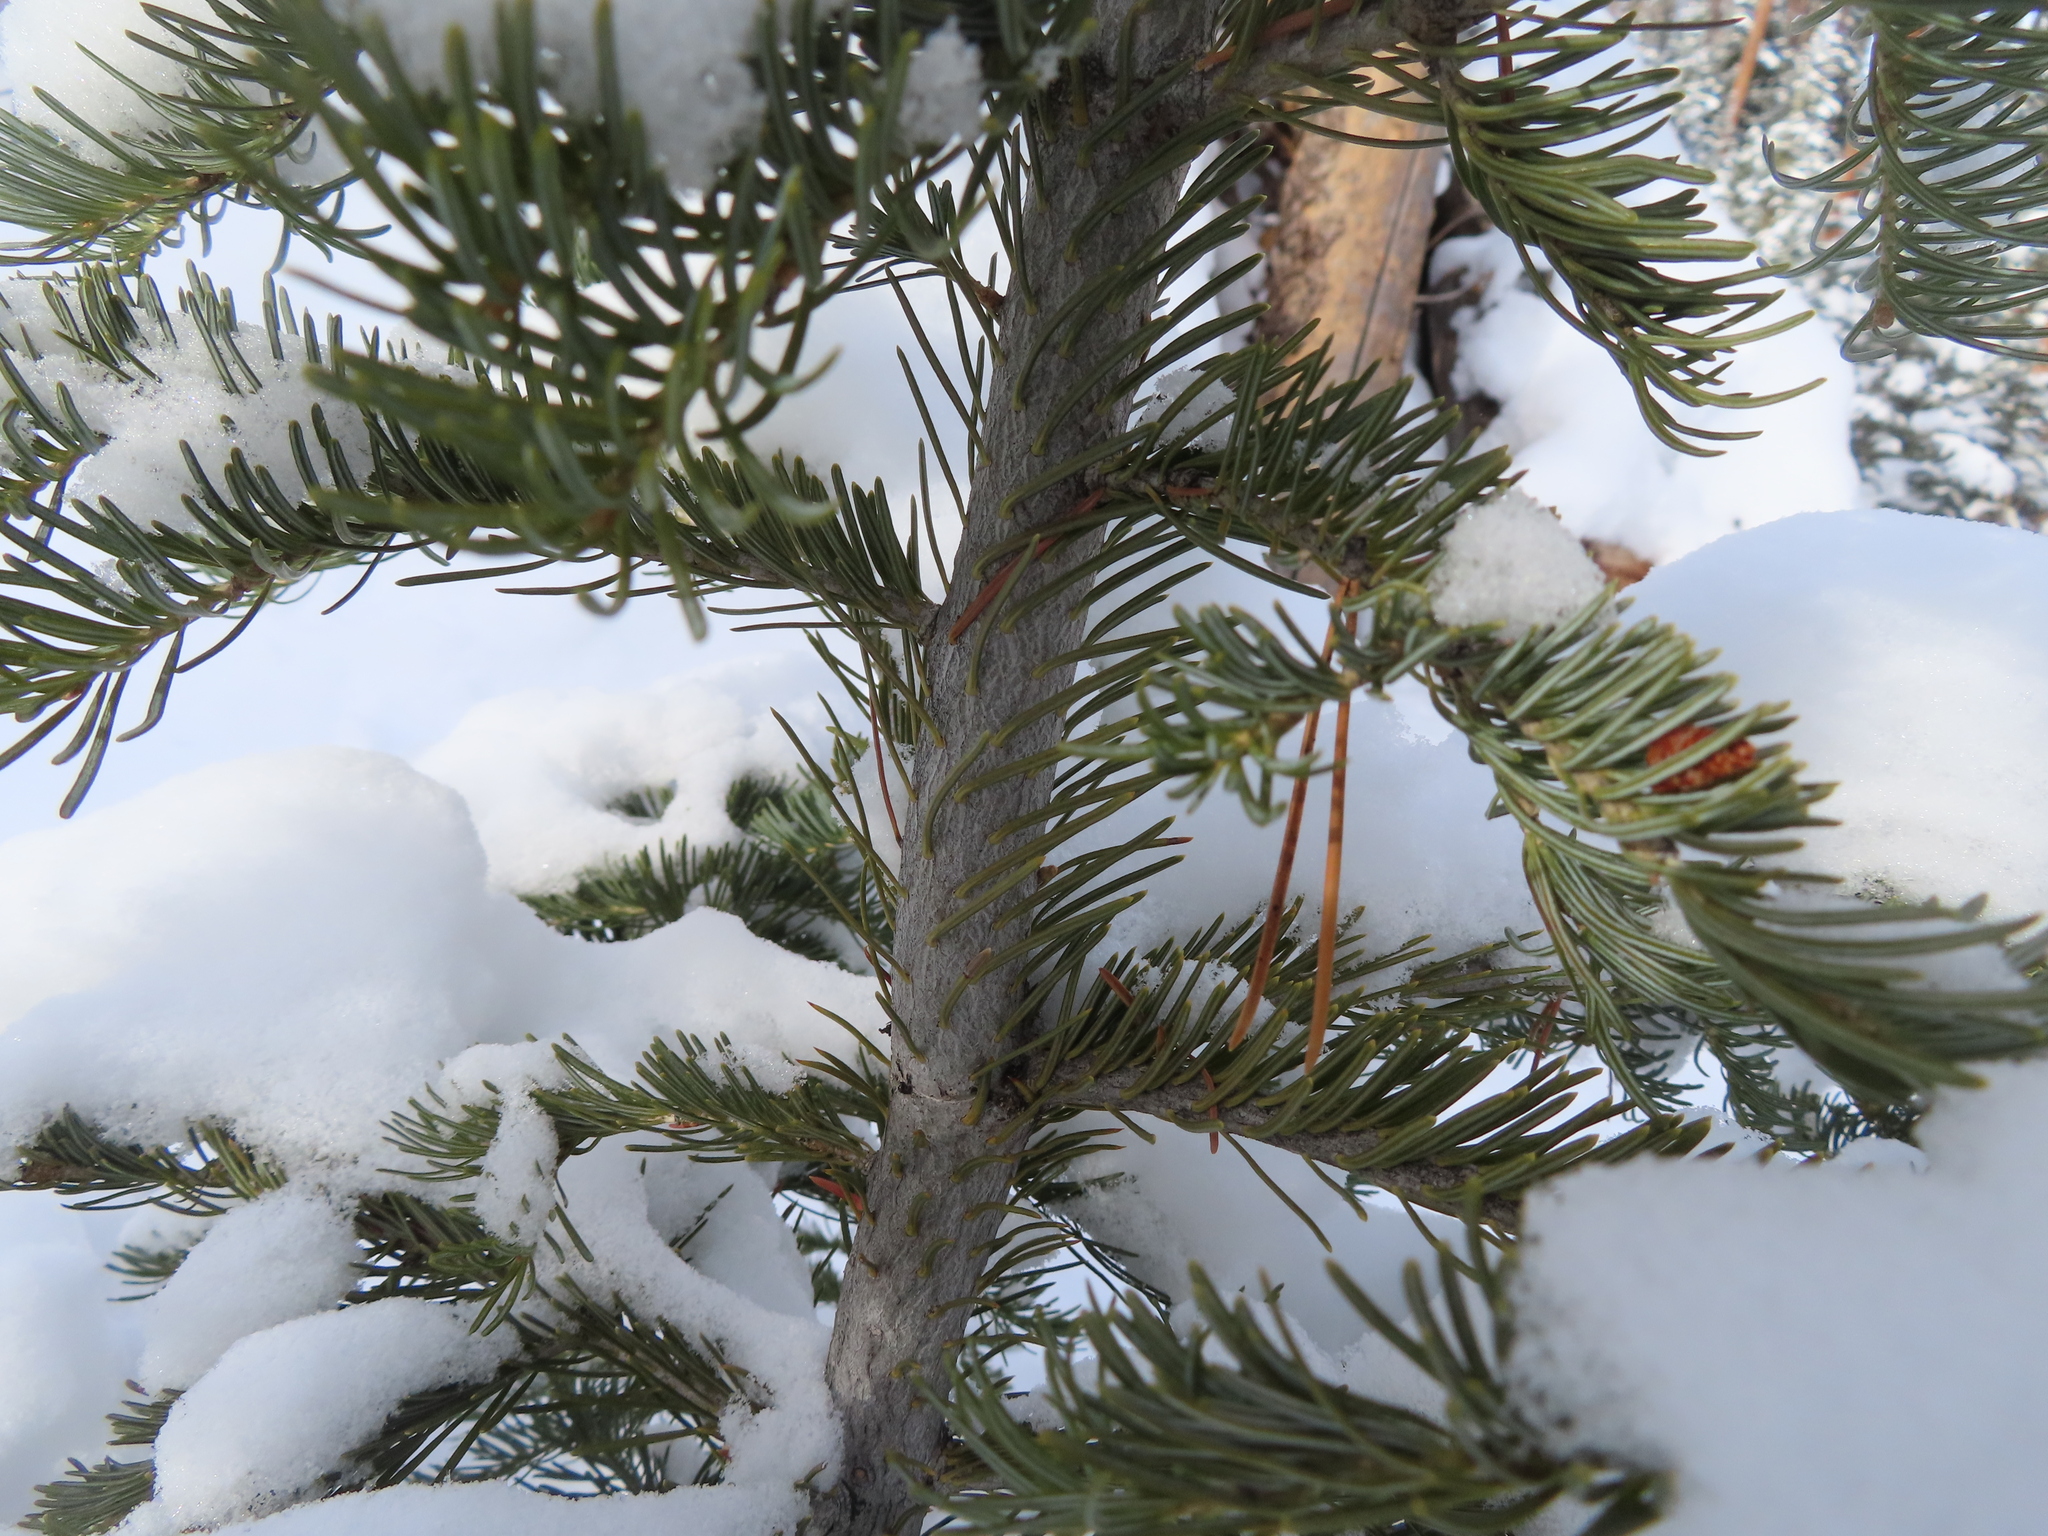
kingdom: Plantae
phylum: Tracheophyta
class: Pinopsida
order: Pinales
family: Pinaceae
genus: Abies
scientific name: Abies lasiocarpa
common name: Subalpine fir
